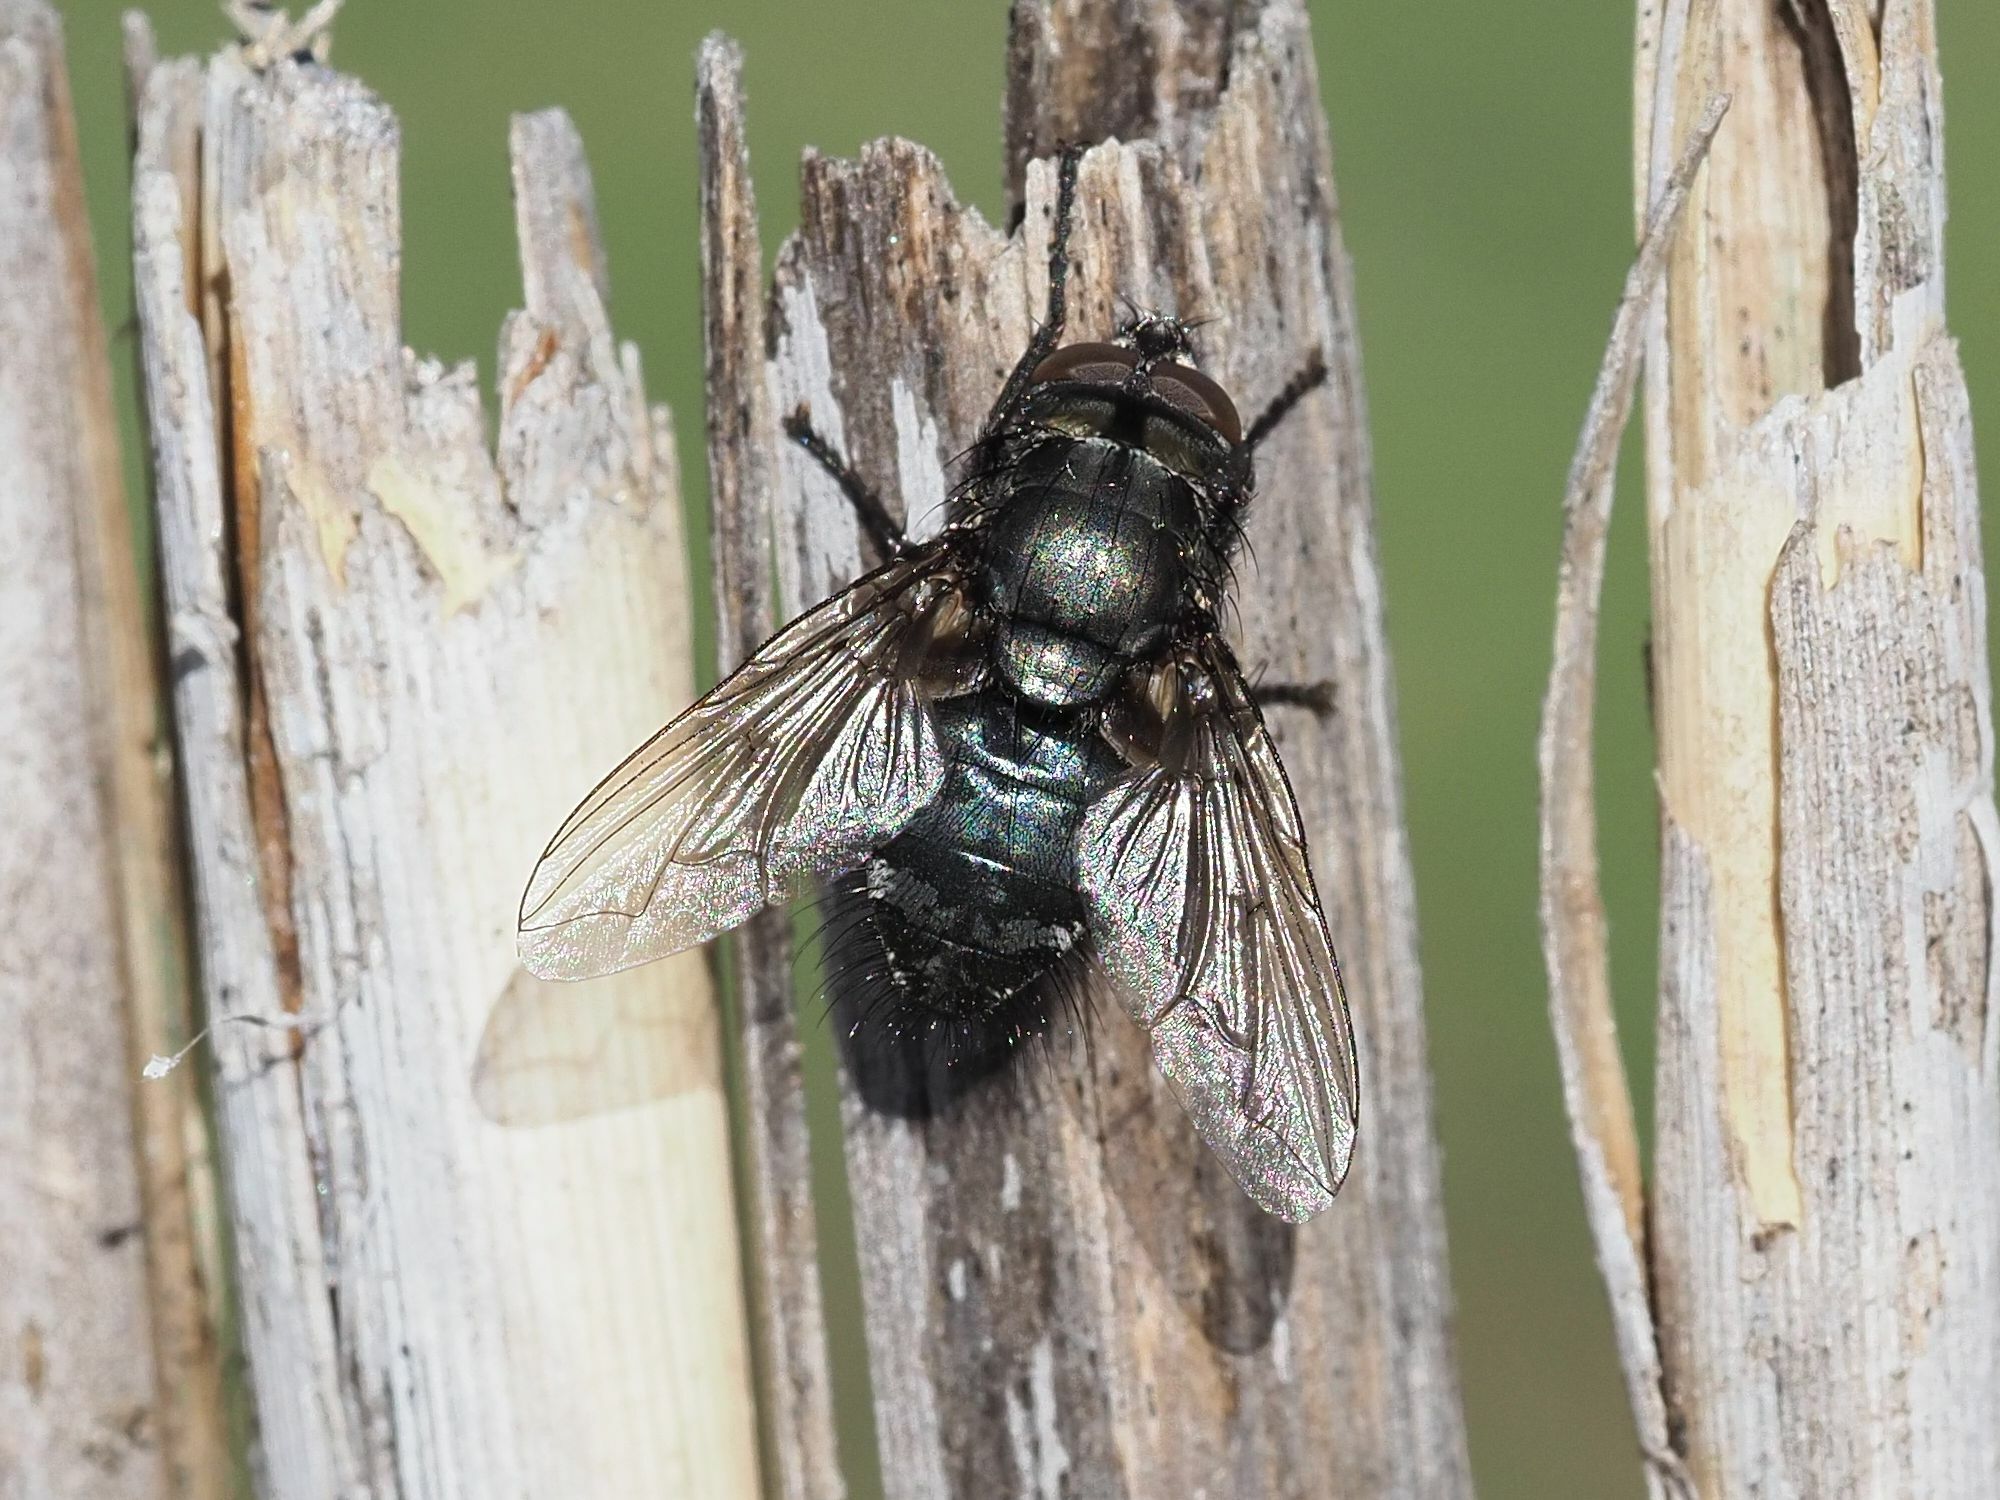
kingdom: Animalia
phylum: Arthropoda
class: Insecta
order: Diptera
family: Polleniidae
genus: Pollenia
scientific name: Pollenia vagabunda
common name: Vagabund cluster fly
